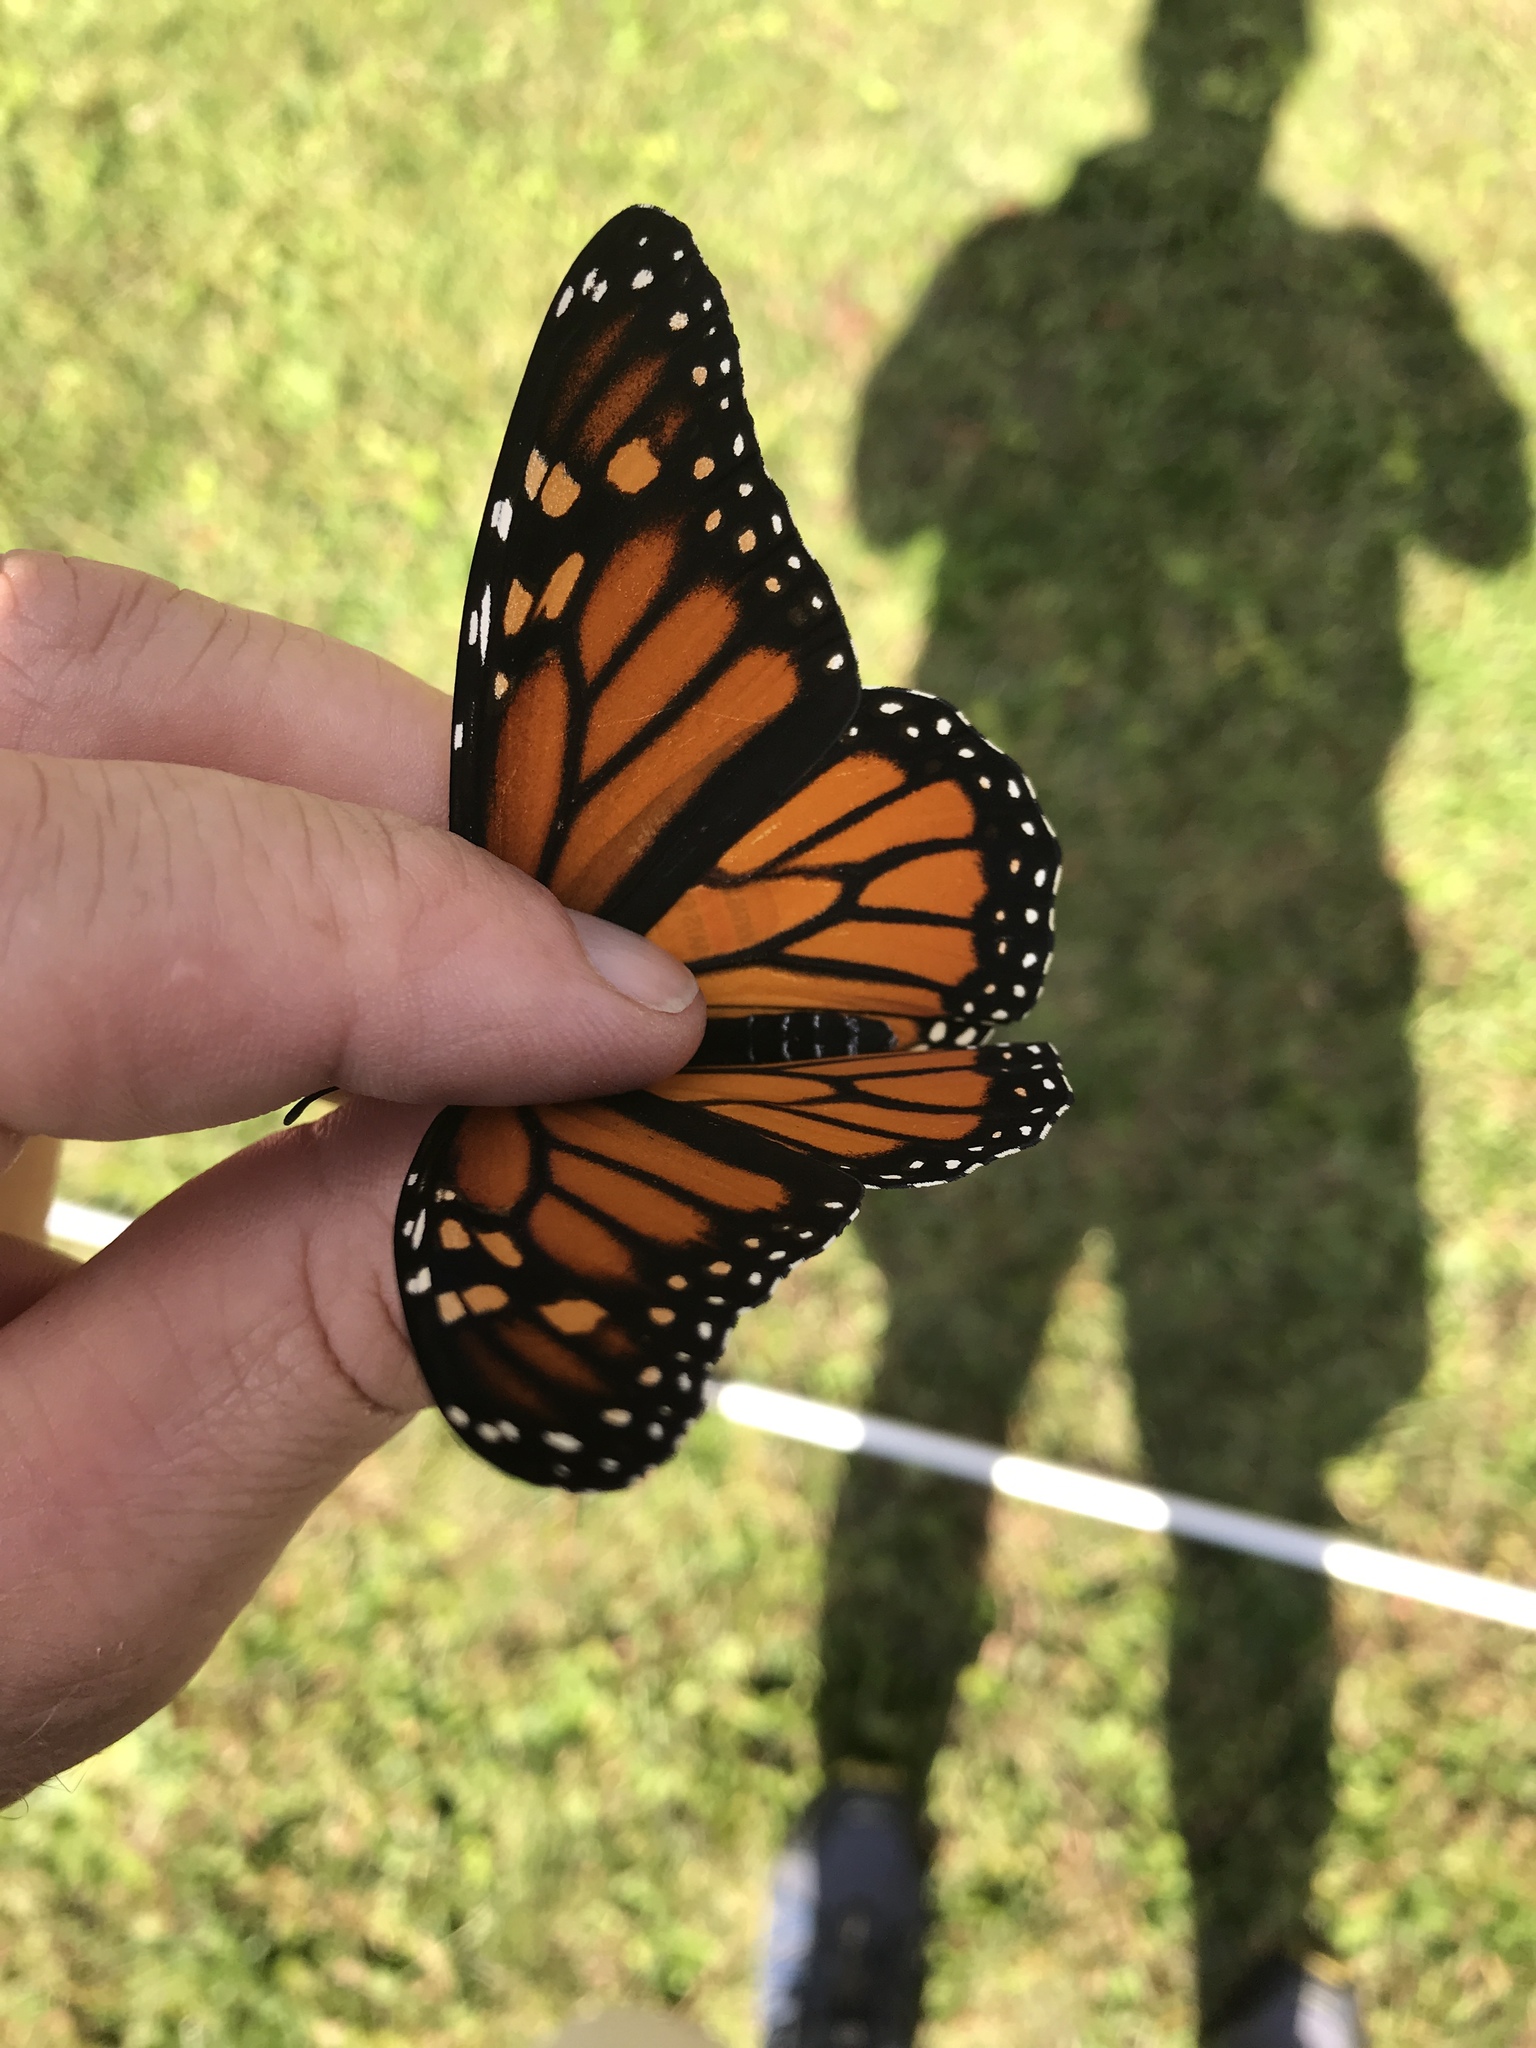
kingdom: Animalia
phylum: Arthropoda
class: Insecta
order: Lepidoptera
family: Nymphalidae
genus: Danaus
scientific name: Danaus plexippus
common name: Monarch
